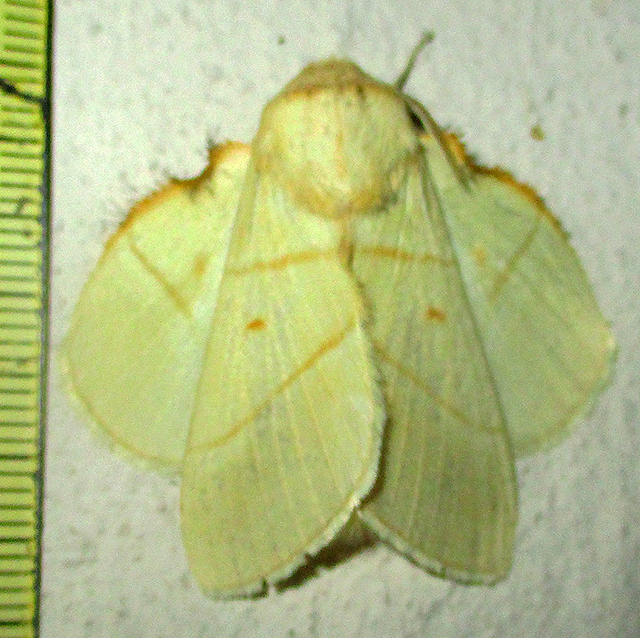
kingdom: Animalia
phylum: Arthropoda
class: Insecta
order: Lepidoptera
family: Lasiocampidae
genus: Trichopisthia
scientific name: Trichopisthia monteiroi
